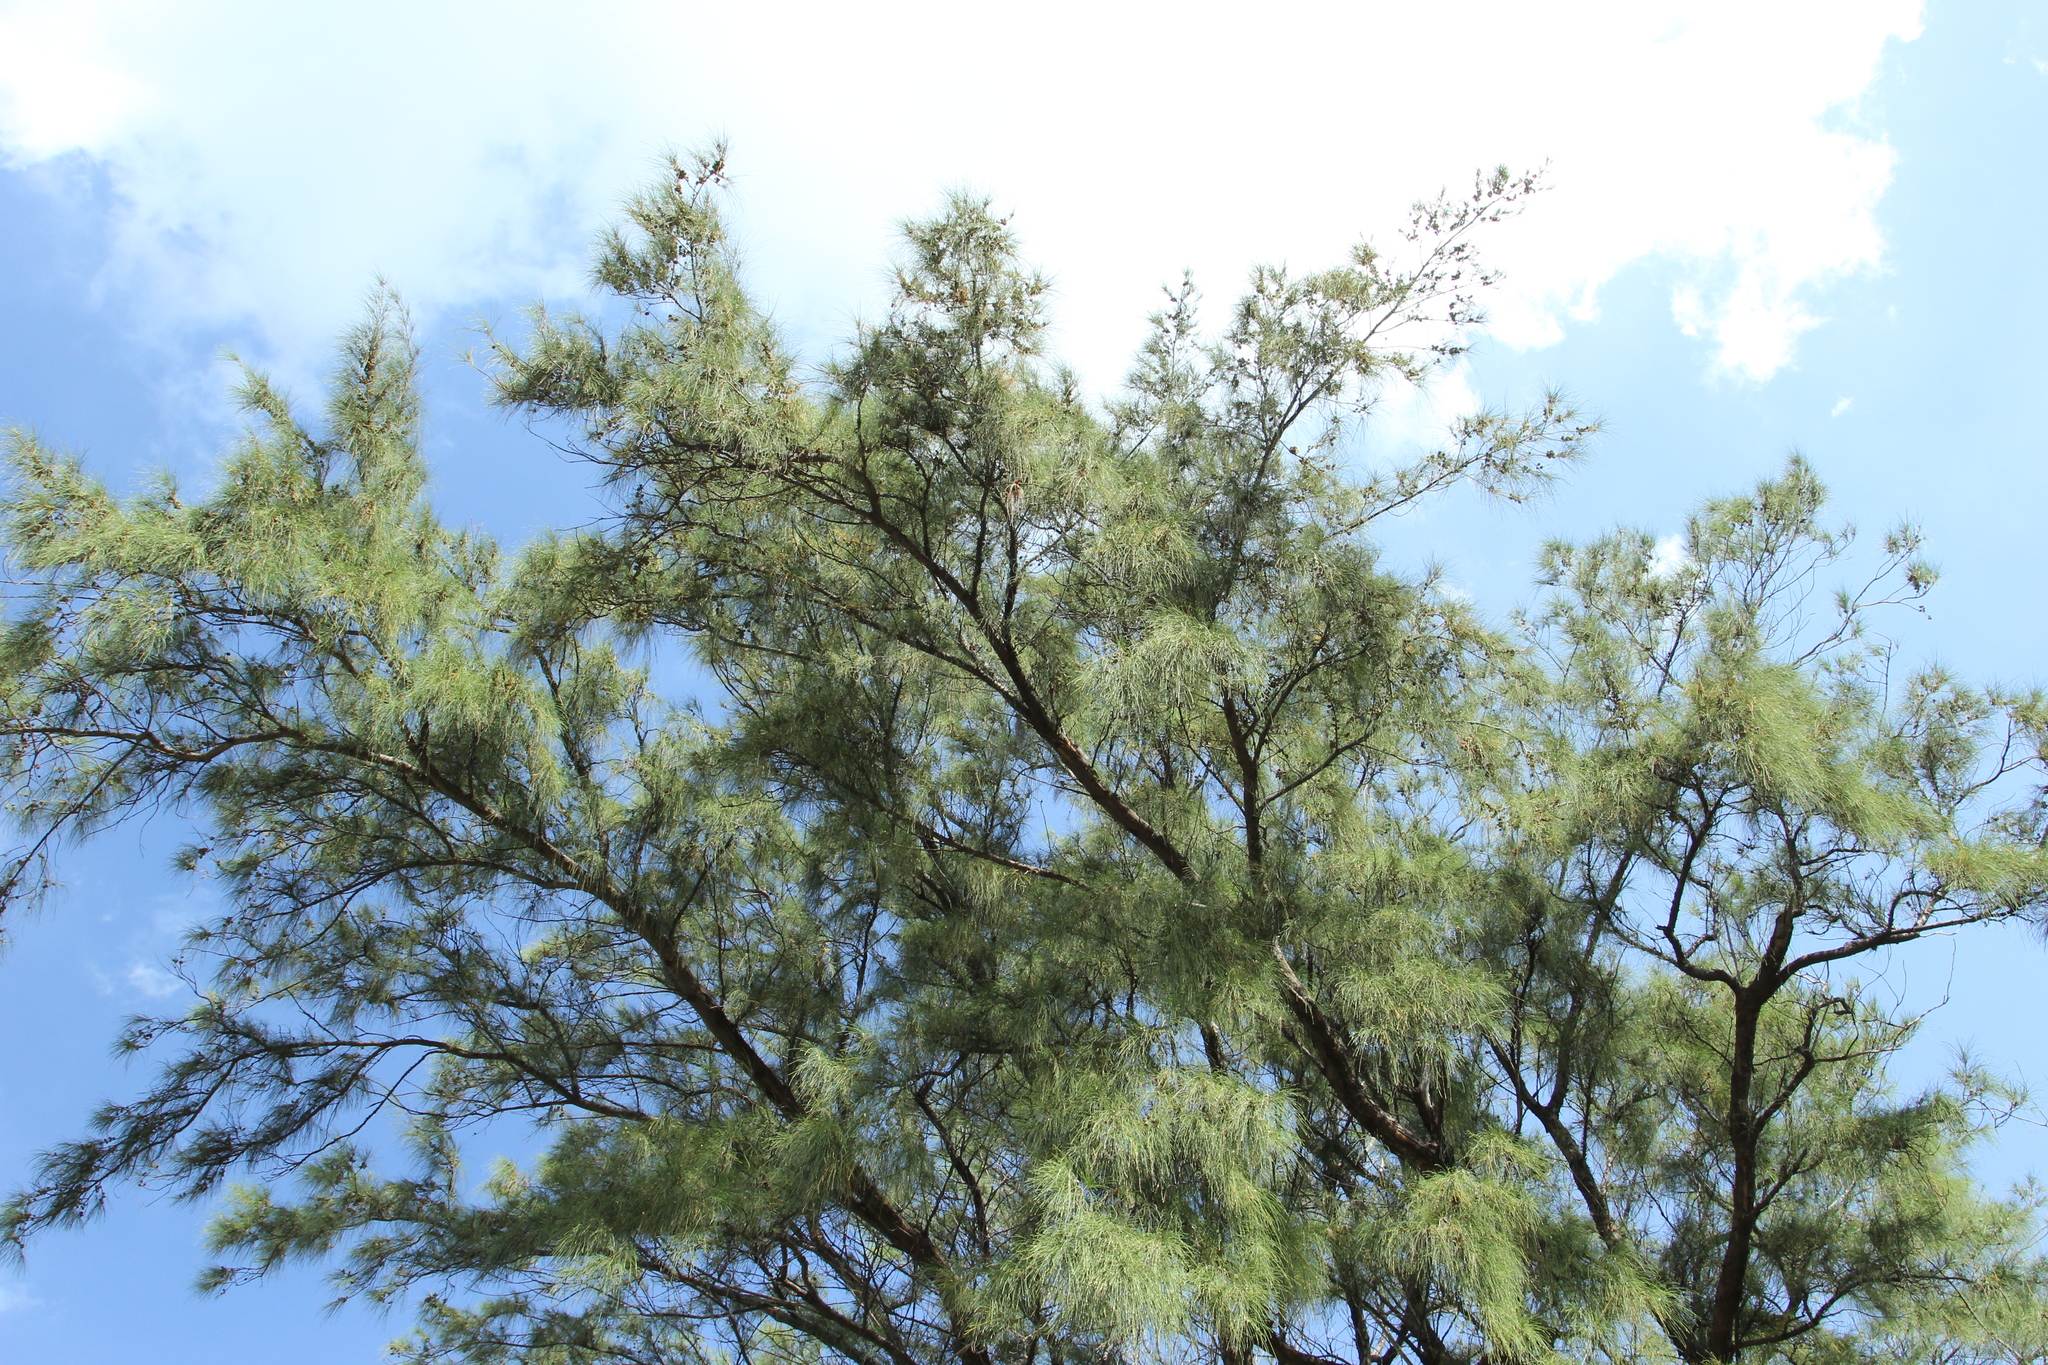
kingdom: Plantae
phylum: Tracheophyta
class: Magnoliopsida
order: Fagales
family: Casuarinaceae
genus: Casuarina
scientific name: Casuarina equisetifolia
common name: Beach sheoak
